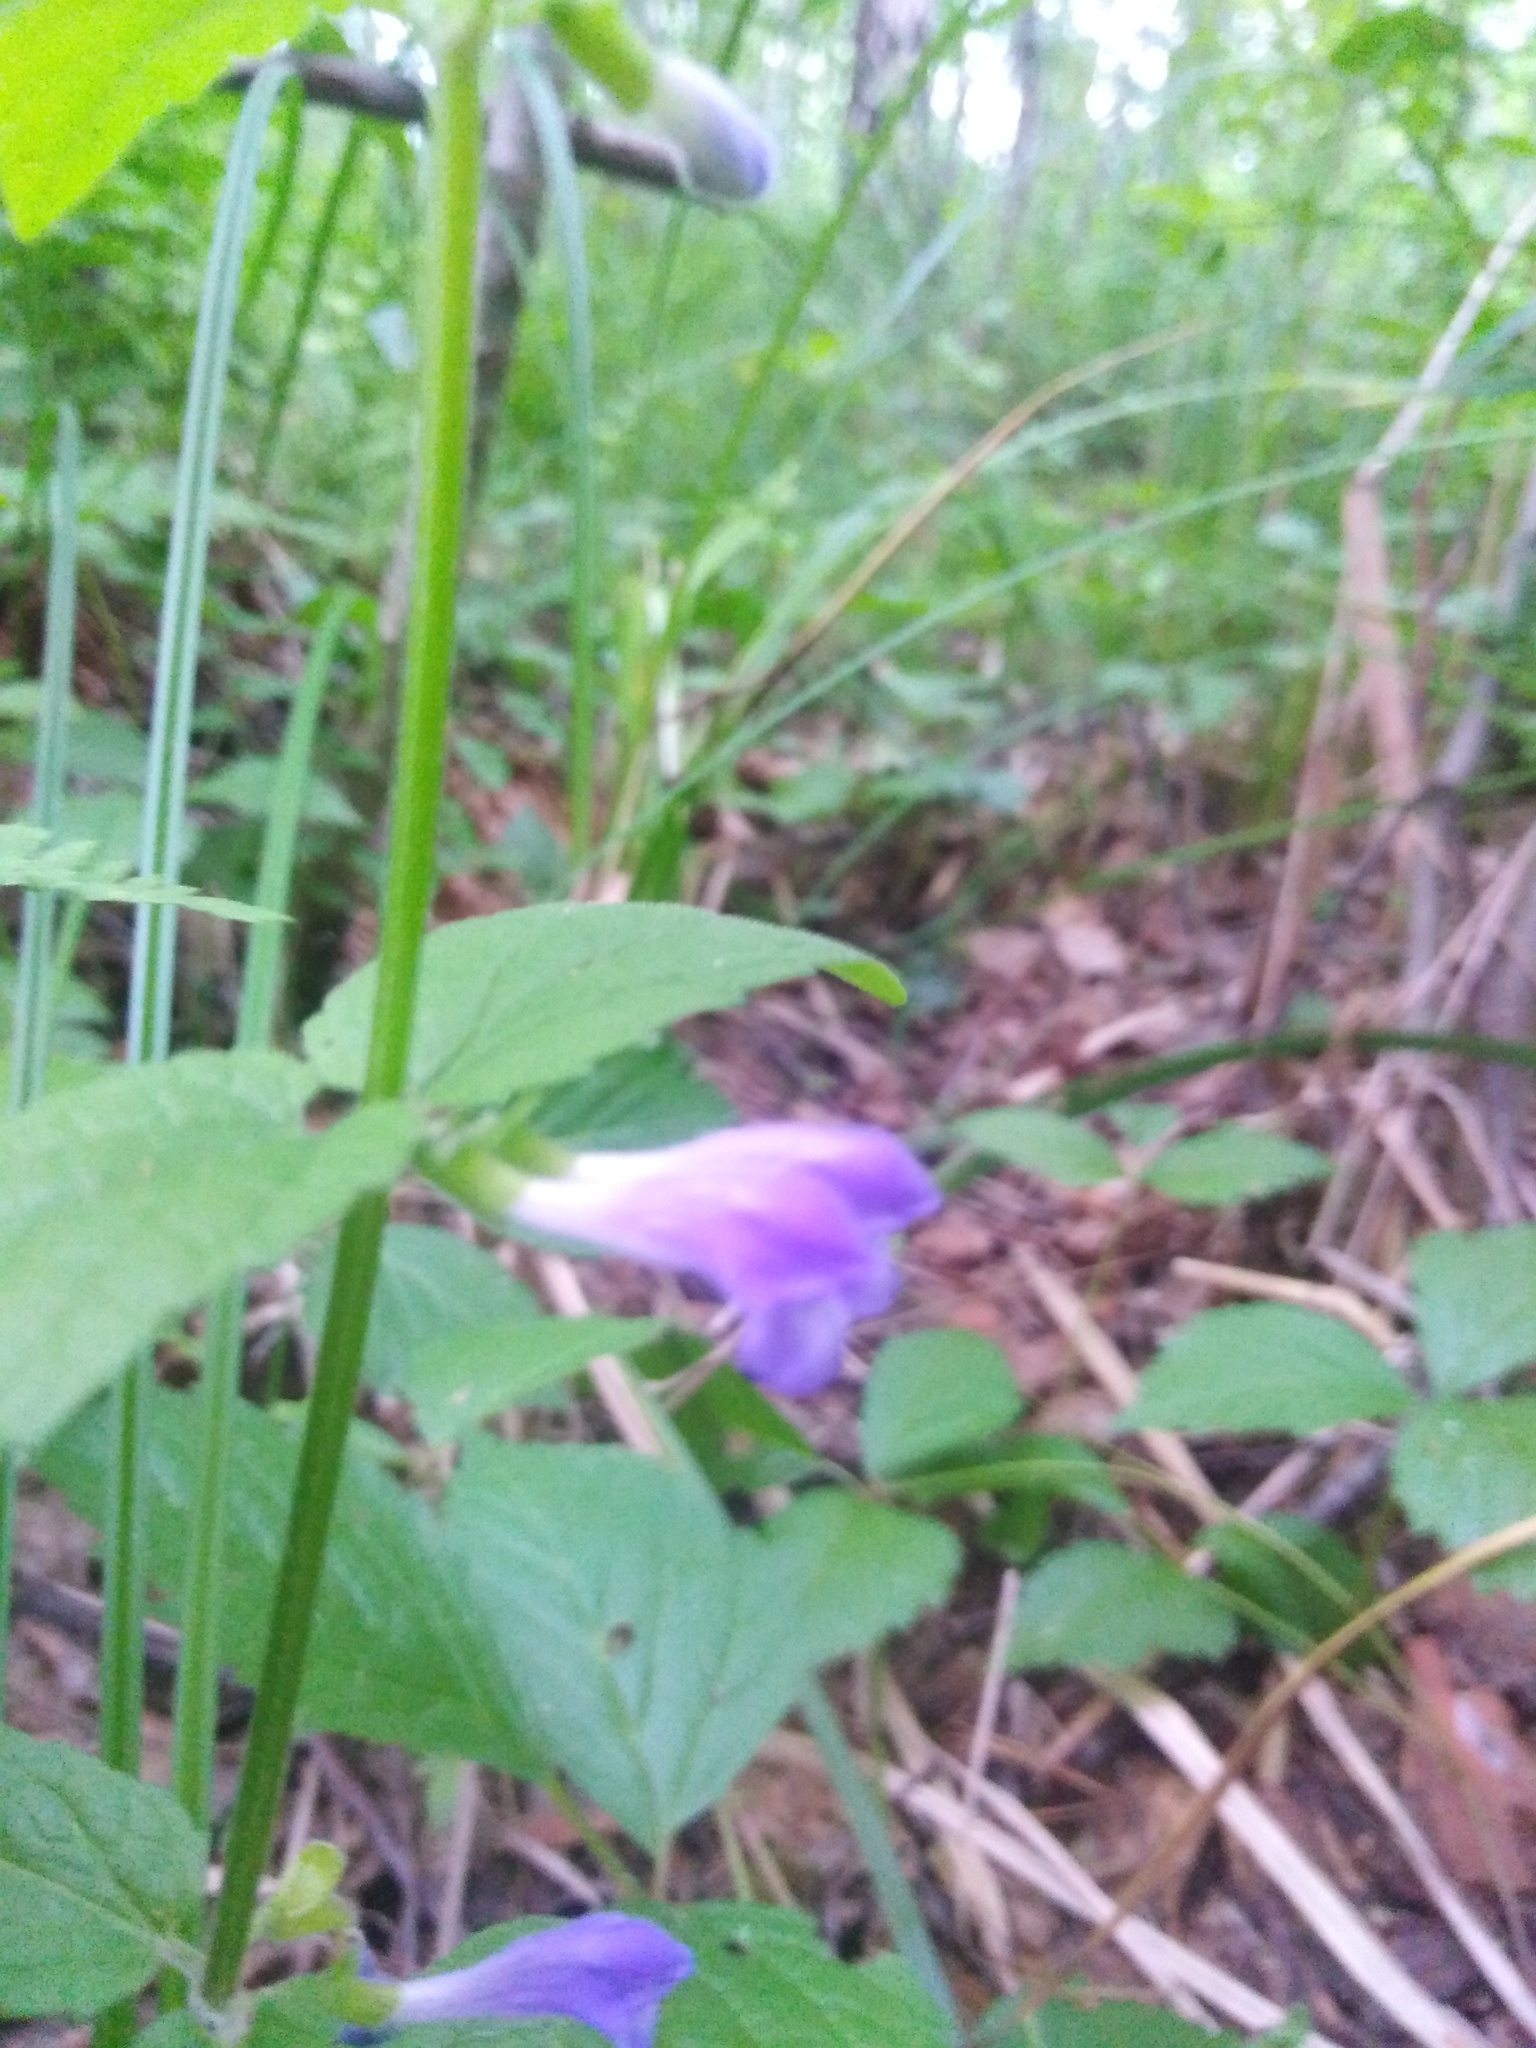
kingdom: Plantae
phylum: Tracheophyta
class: Magnoliopsida
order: Lamiales
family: Lamiaceae
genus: Scutellaria
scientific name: Scutellaria galericulata
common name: Skullcap
